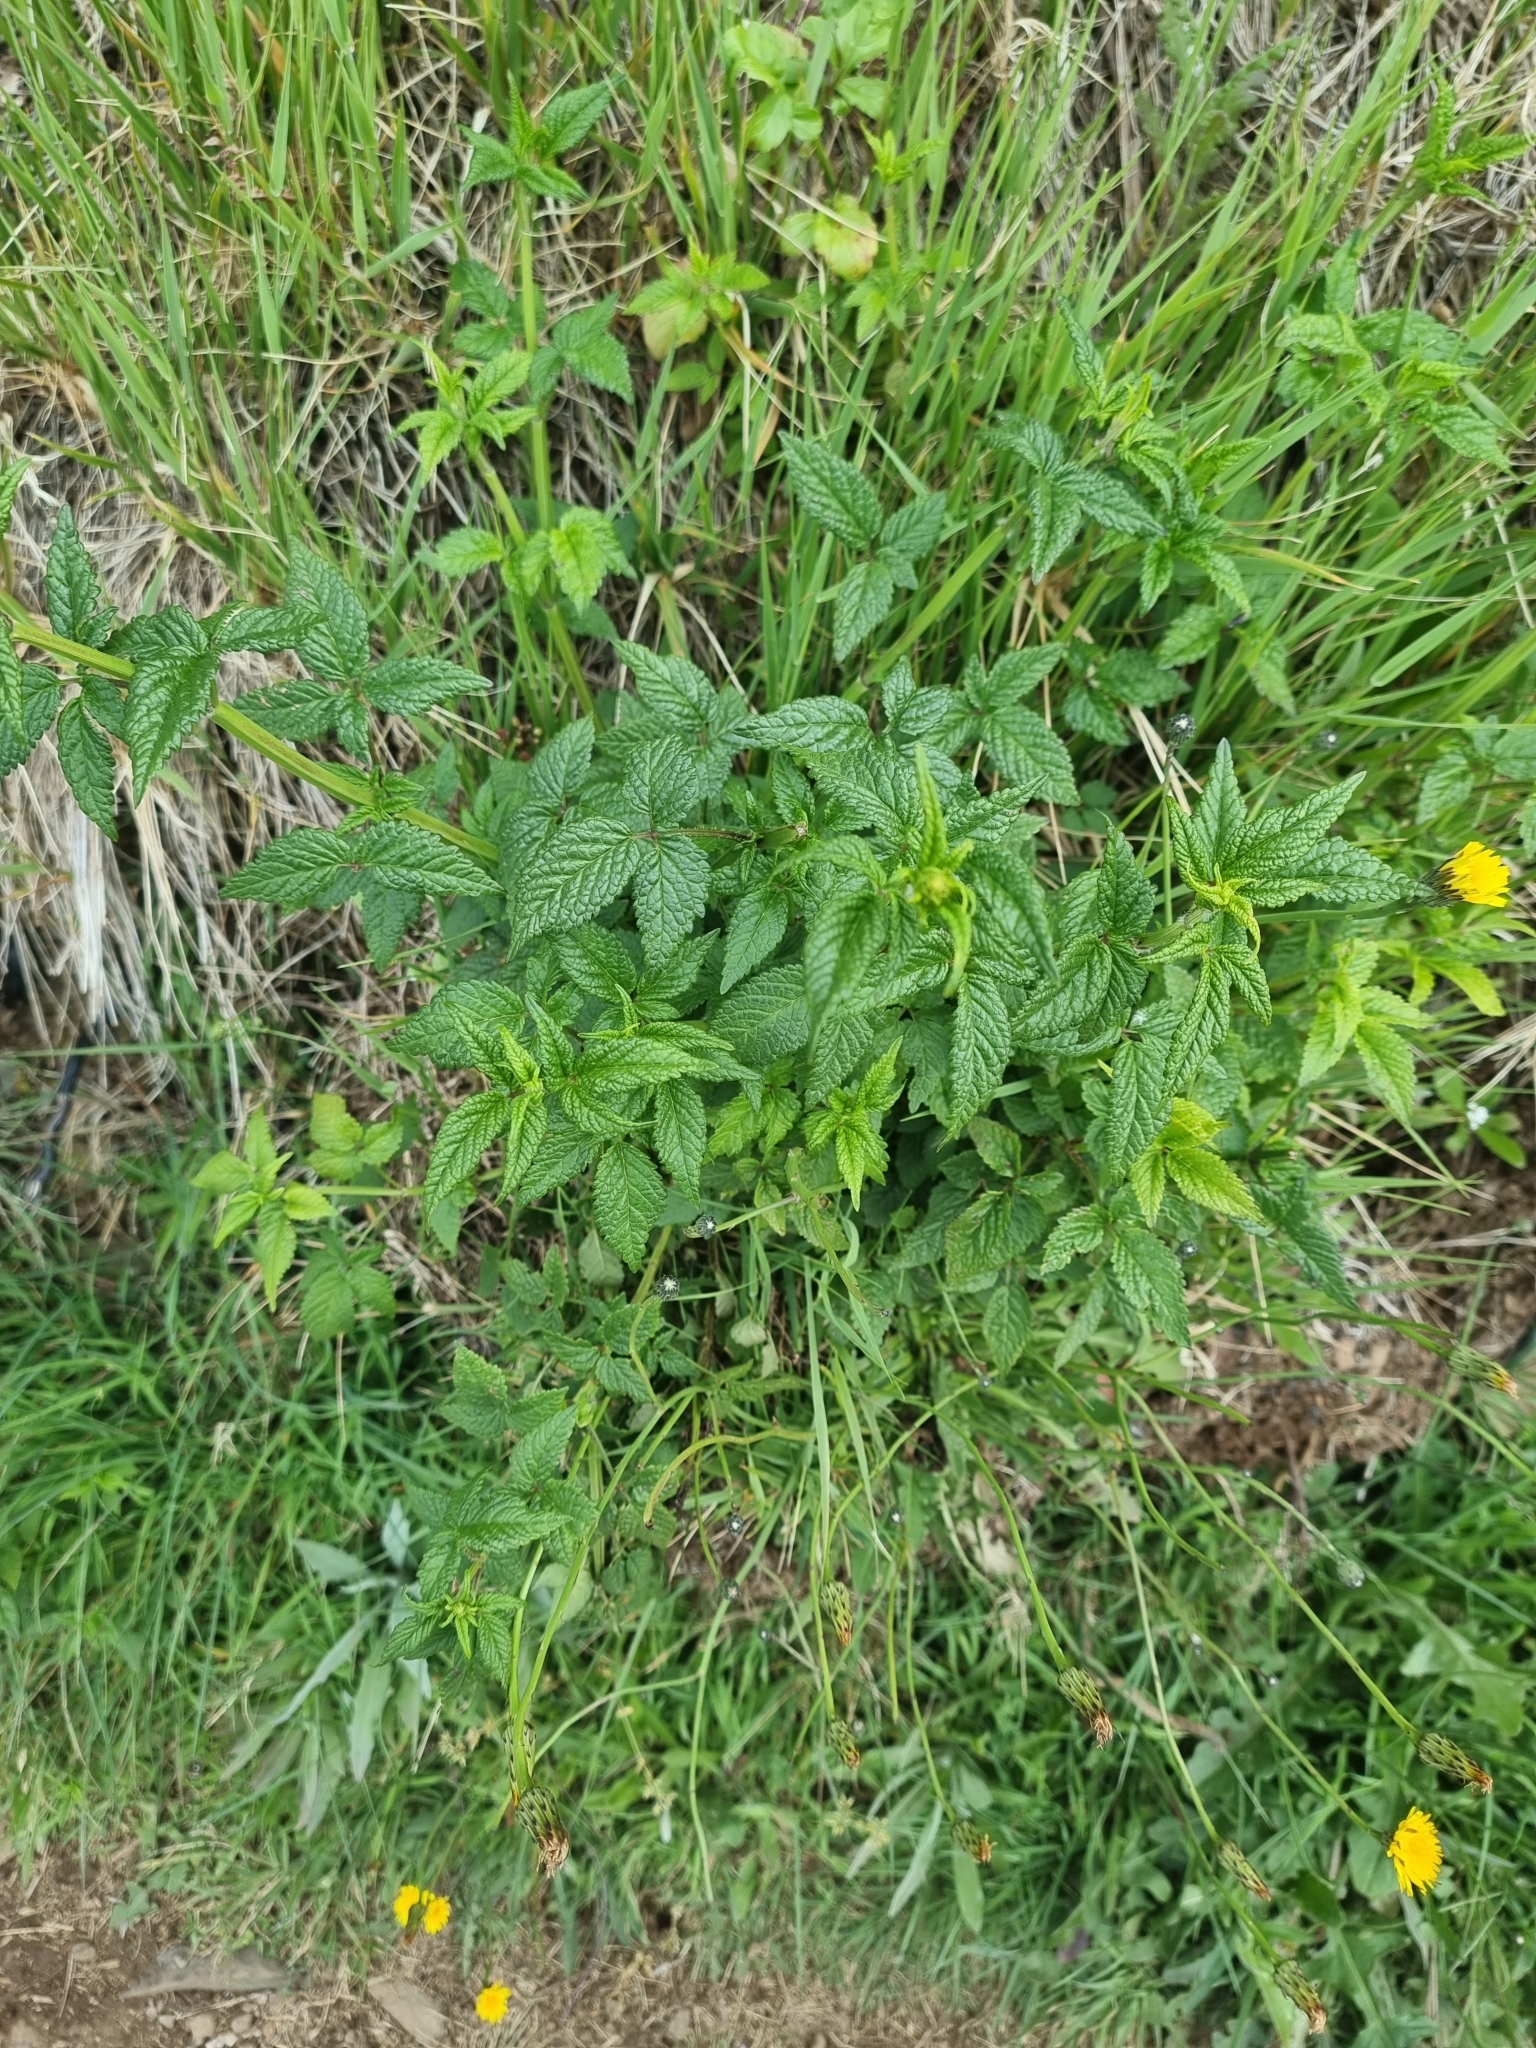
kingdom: Plantae
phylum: Tracheophyta
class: Magnoliopsida
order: Lamiales
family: Lamiaceae
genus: Cedronella
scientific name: Cedronella canariensis
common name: Canary islands balm
